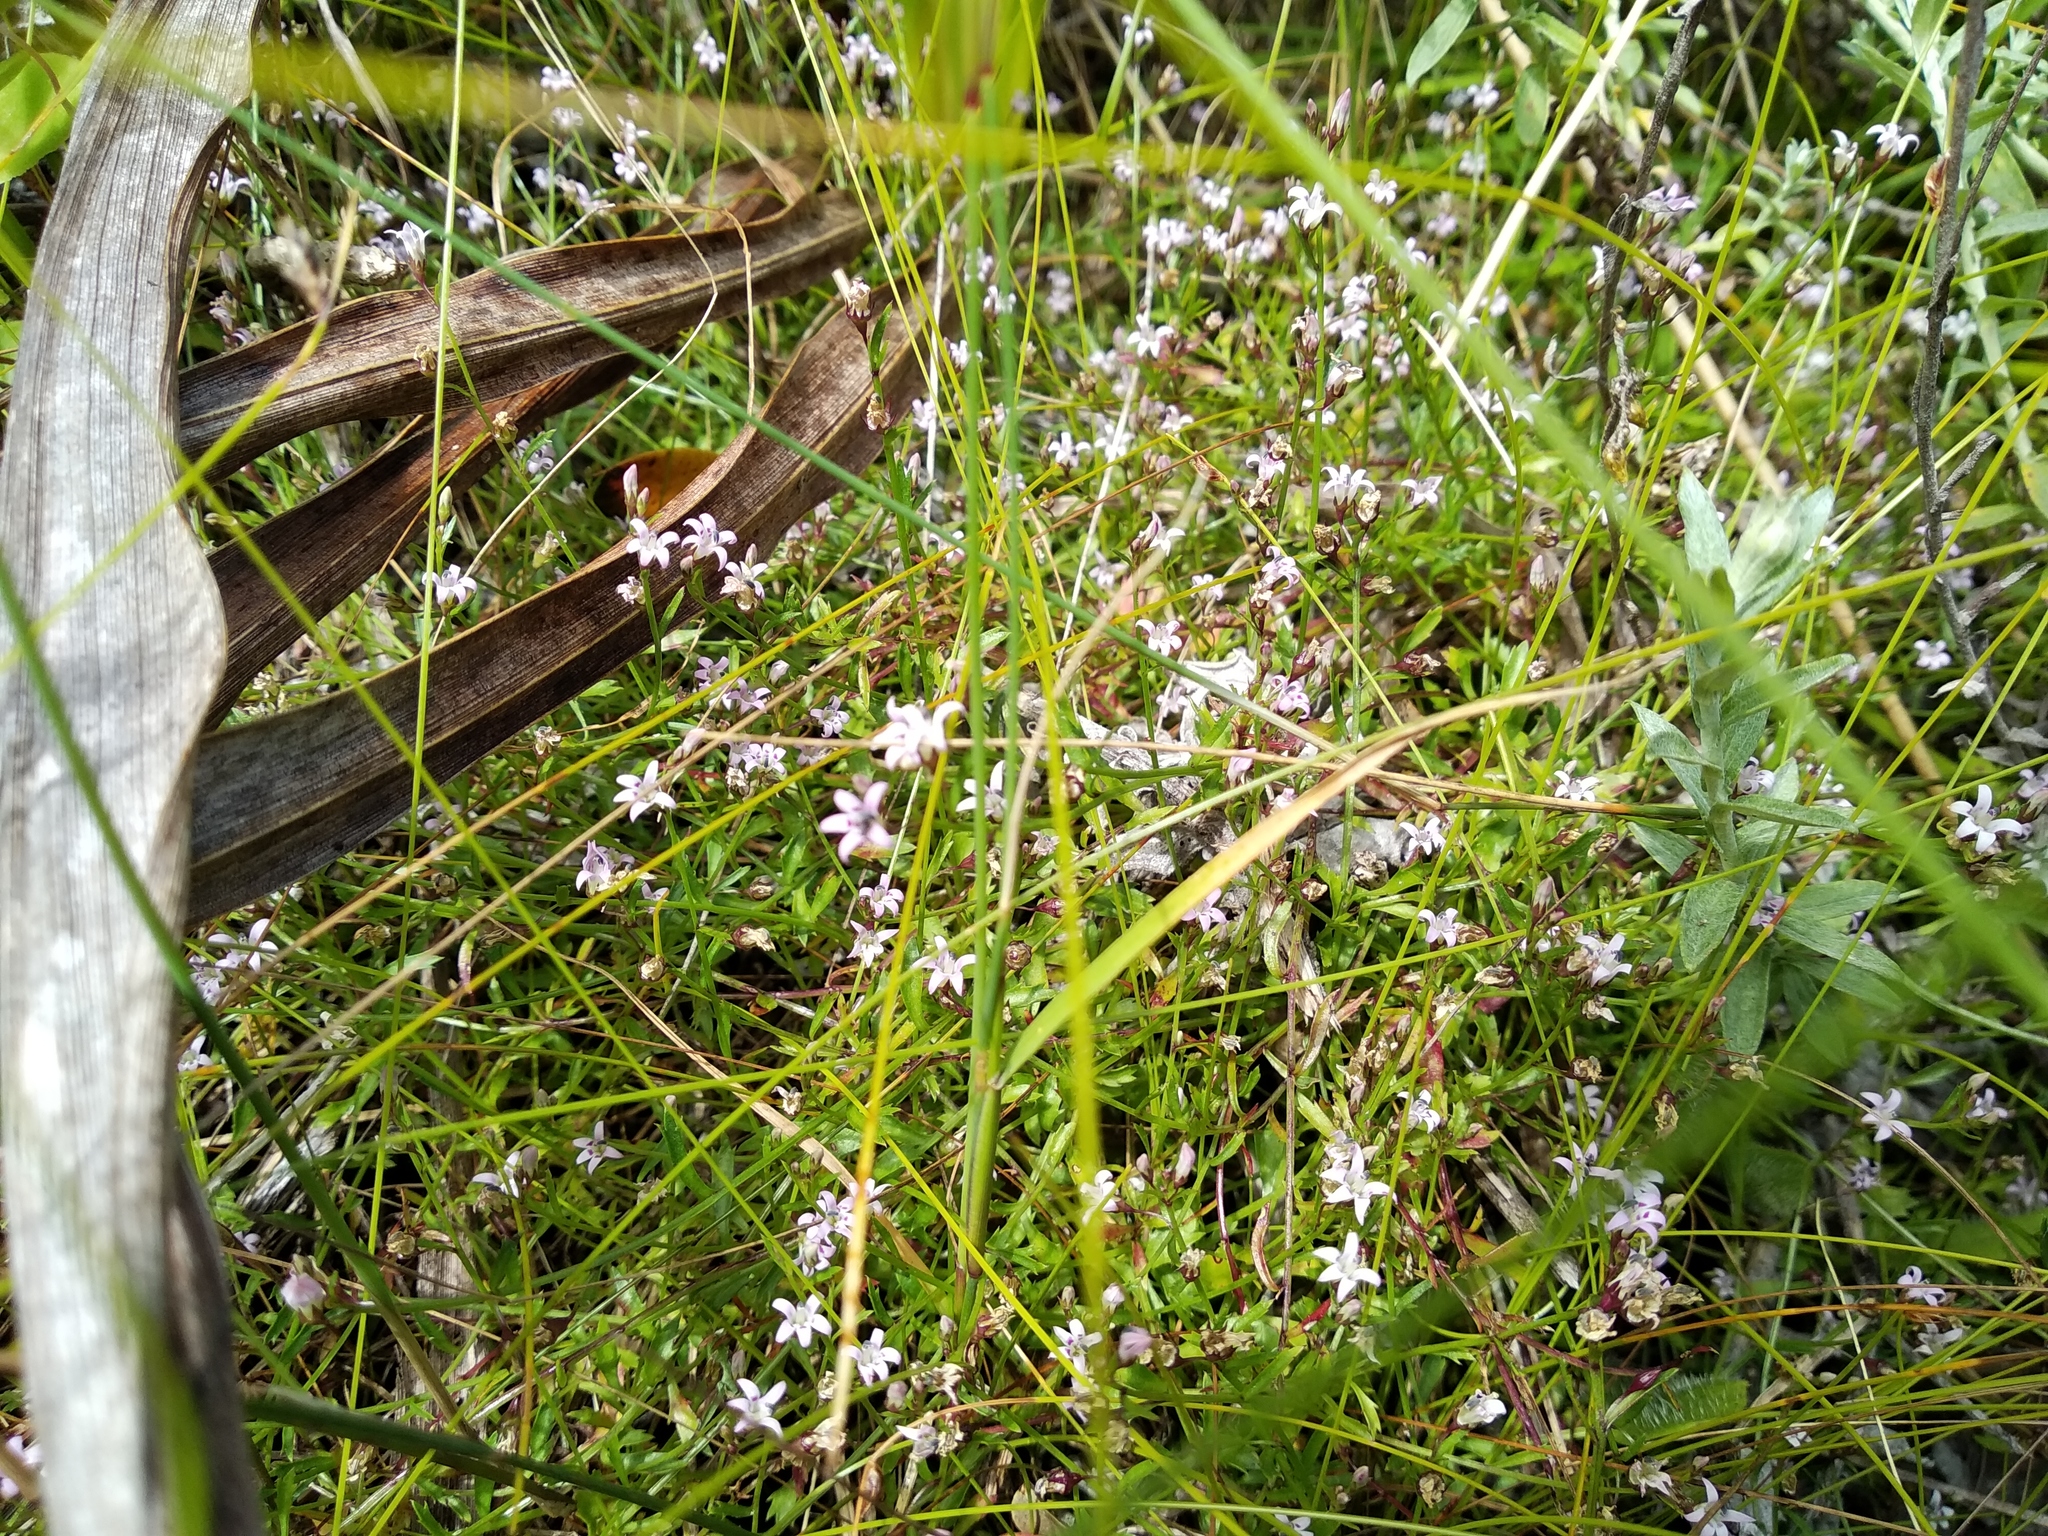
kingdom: Plantae
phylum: Tracheophyta
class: Magnoliopsida
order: Asterales
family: Campanulaceae
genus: Lobelia
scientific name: Lobelia eckloniana
